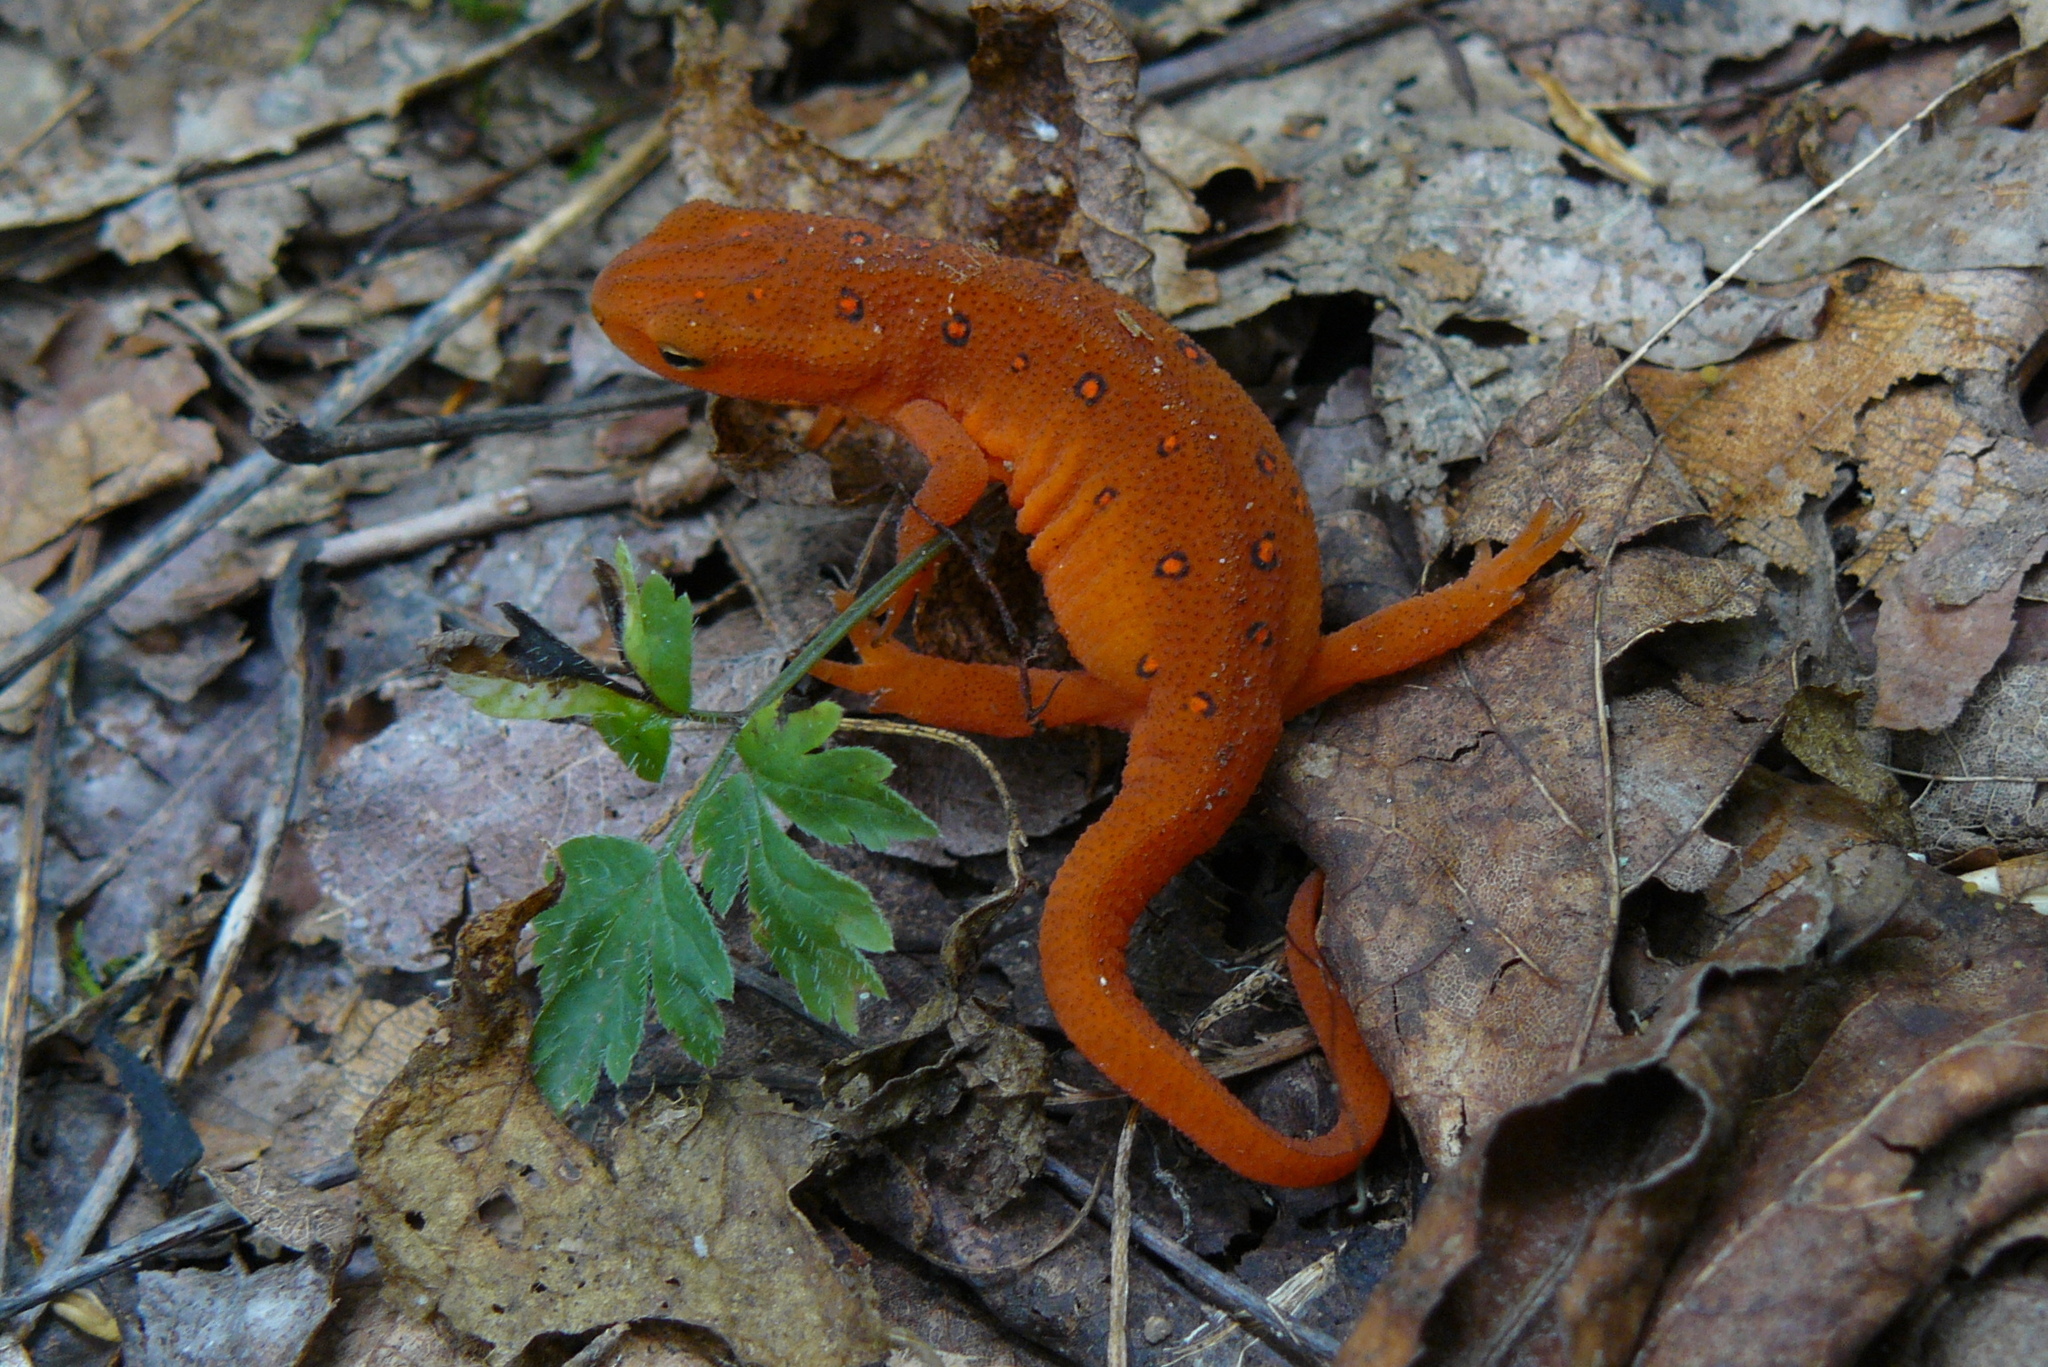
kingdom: Animalia
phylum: Chordata
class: Amphibia
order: Caudata
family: Salamandridae
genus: Notophthalmus
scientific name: Notophthalmus viridescens
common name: Eastern newt
